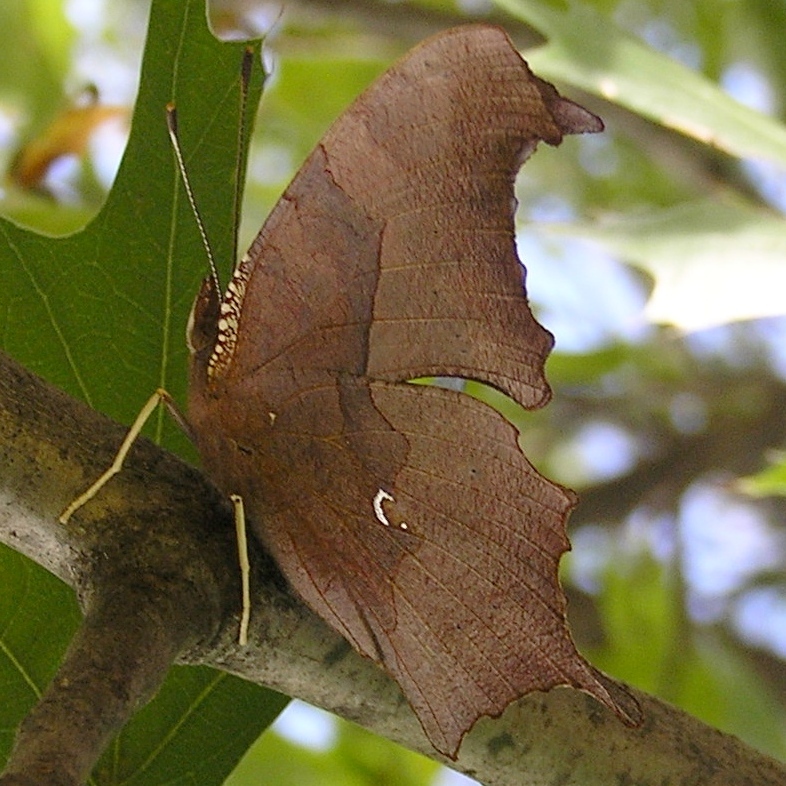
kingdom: Animalia
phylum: Arthropoda
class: Insecta
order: Lepidoptera
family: Nymphalidae
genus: Polygonia
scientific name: Polygonia interrogationis
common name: Question mark
